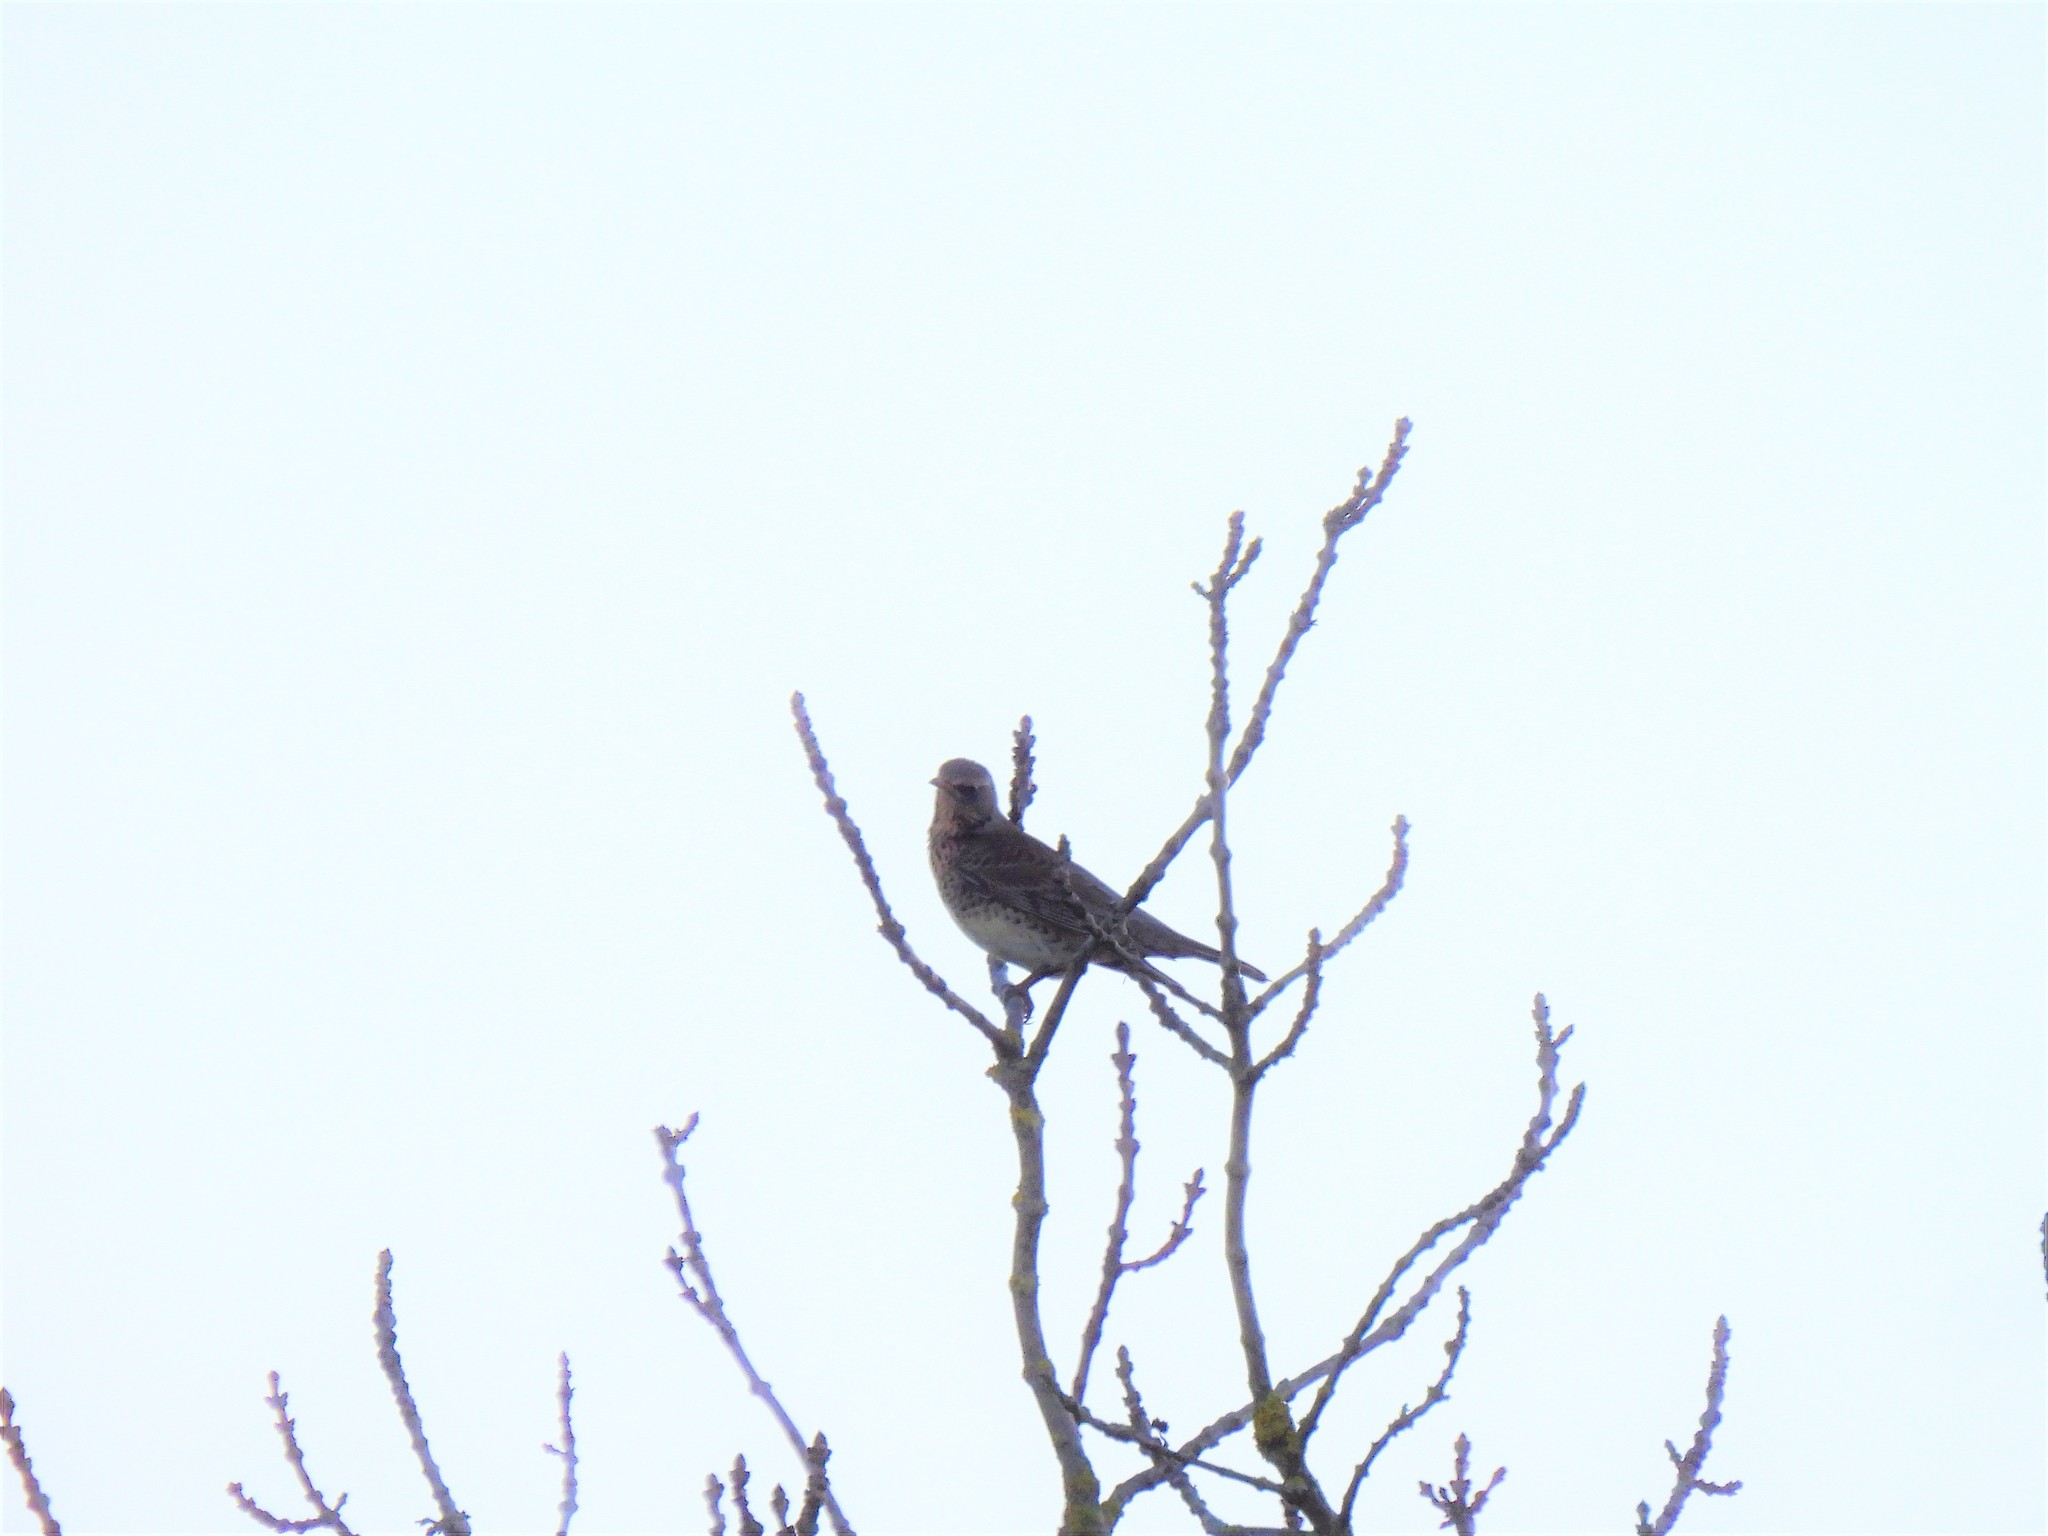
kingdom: Animalia
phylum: Chordata
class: Aves
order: Passeriformes
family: Turdidae
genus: Turdus
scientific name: Turdus pilaris
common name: Fieldfare
